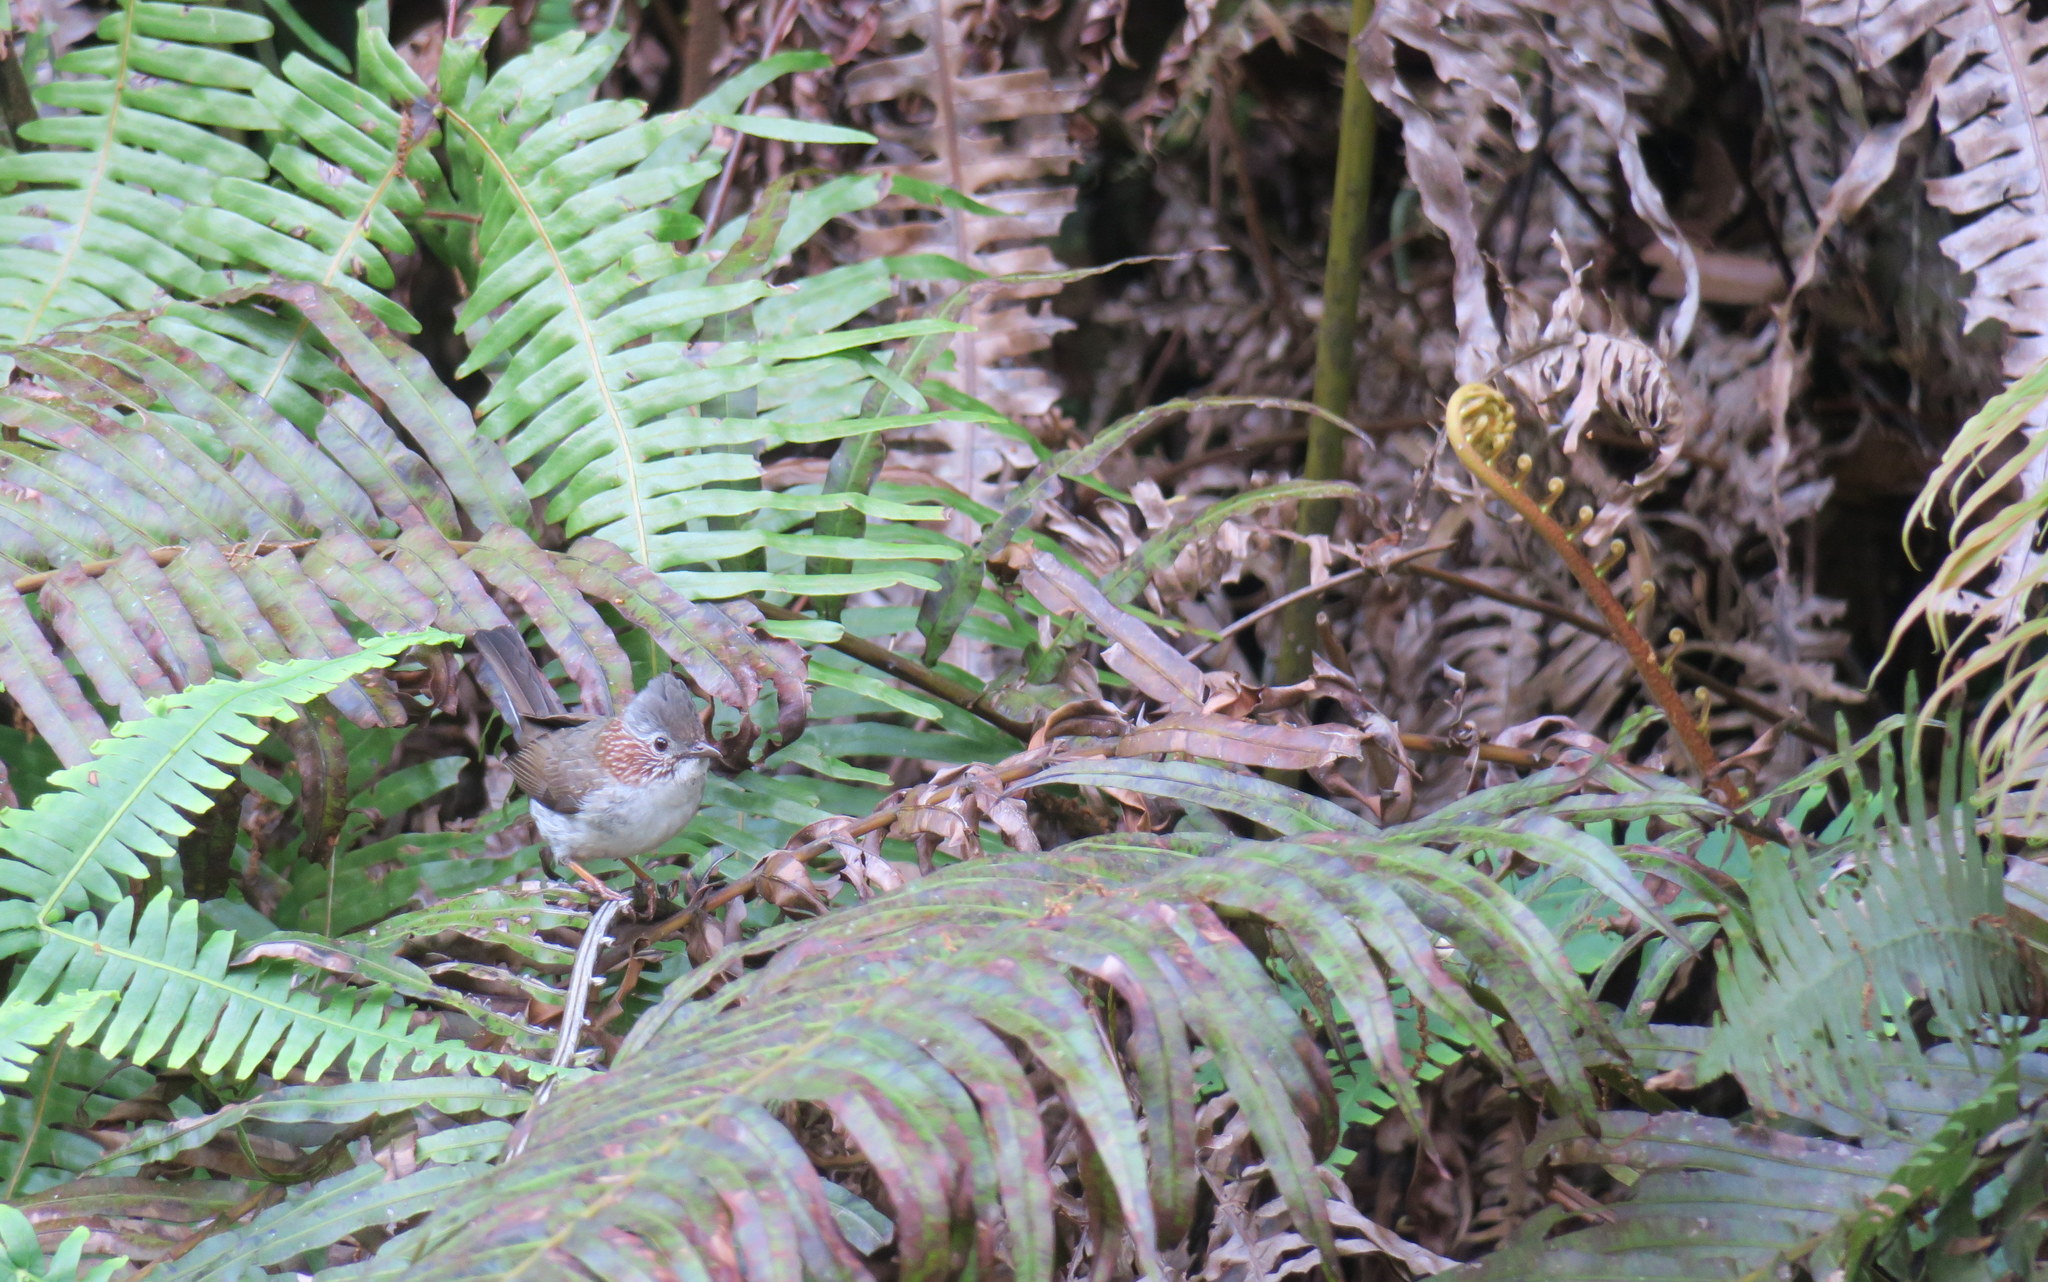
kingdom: Animalia
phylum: Chordata
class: Aves
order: Passeriformes
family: Zosteropidae
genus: Yuhina
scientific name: Yuhina torqueola
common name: Indochinese yuhina
